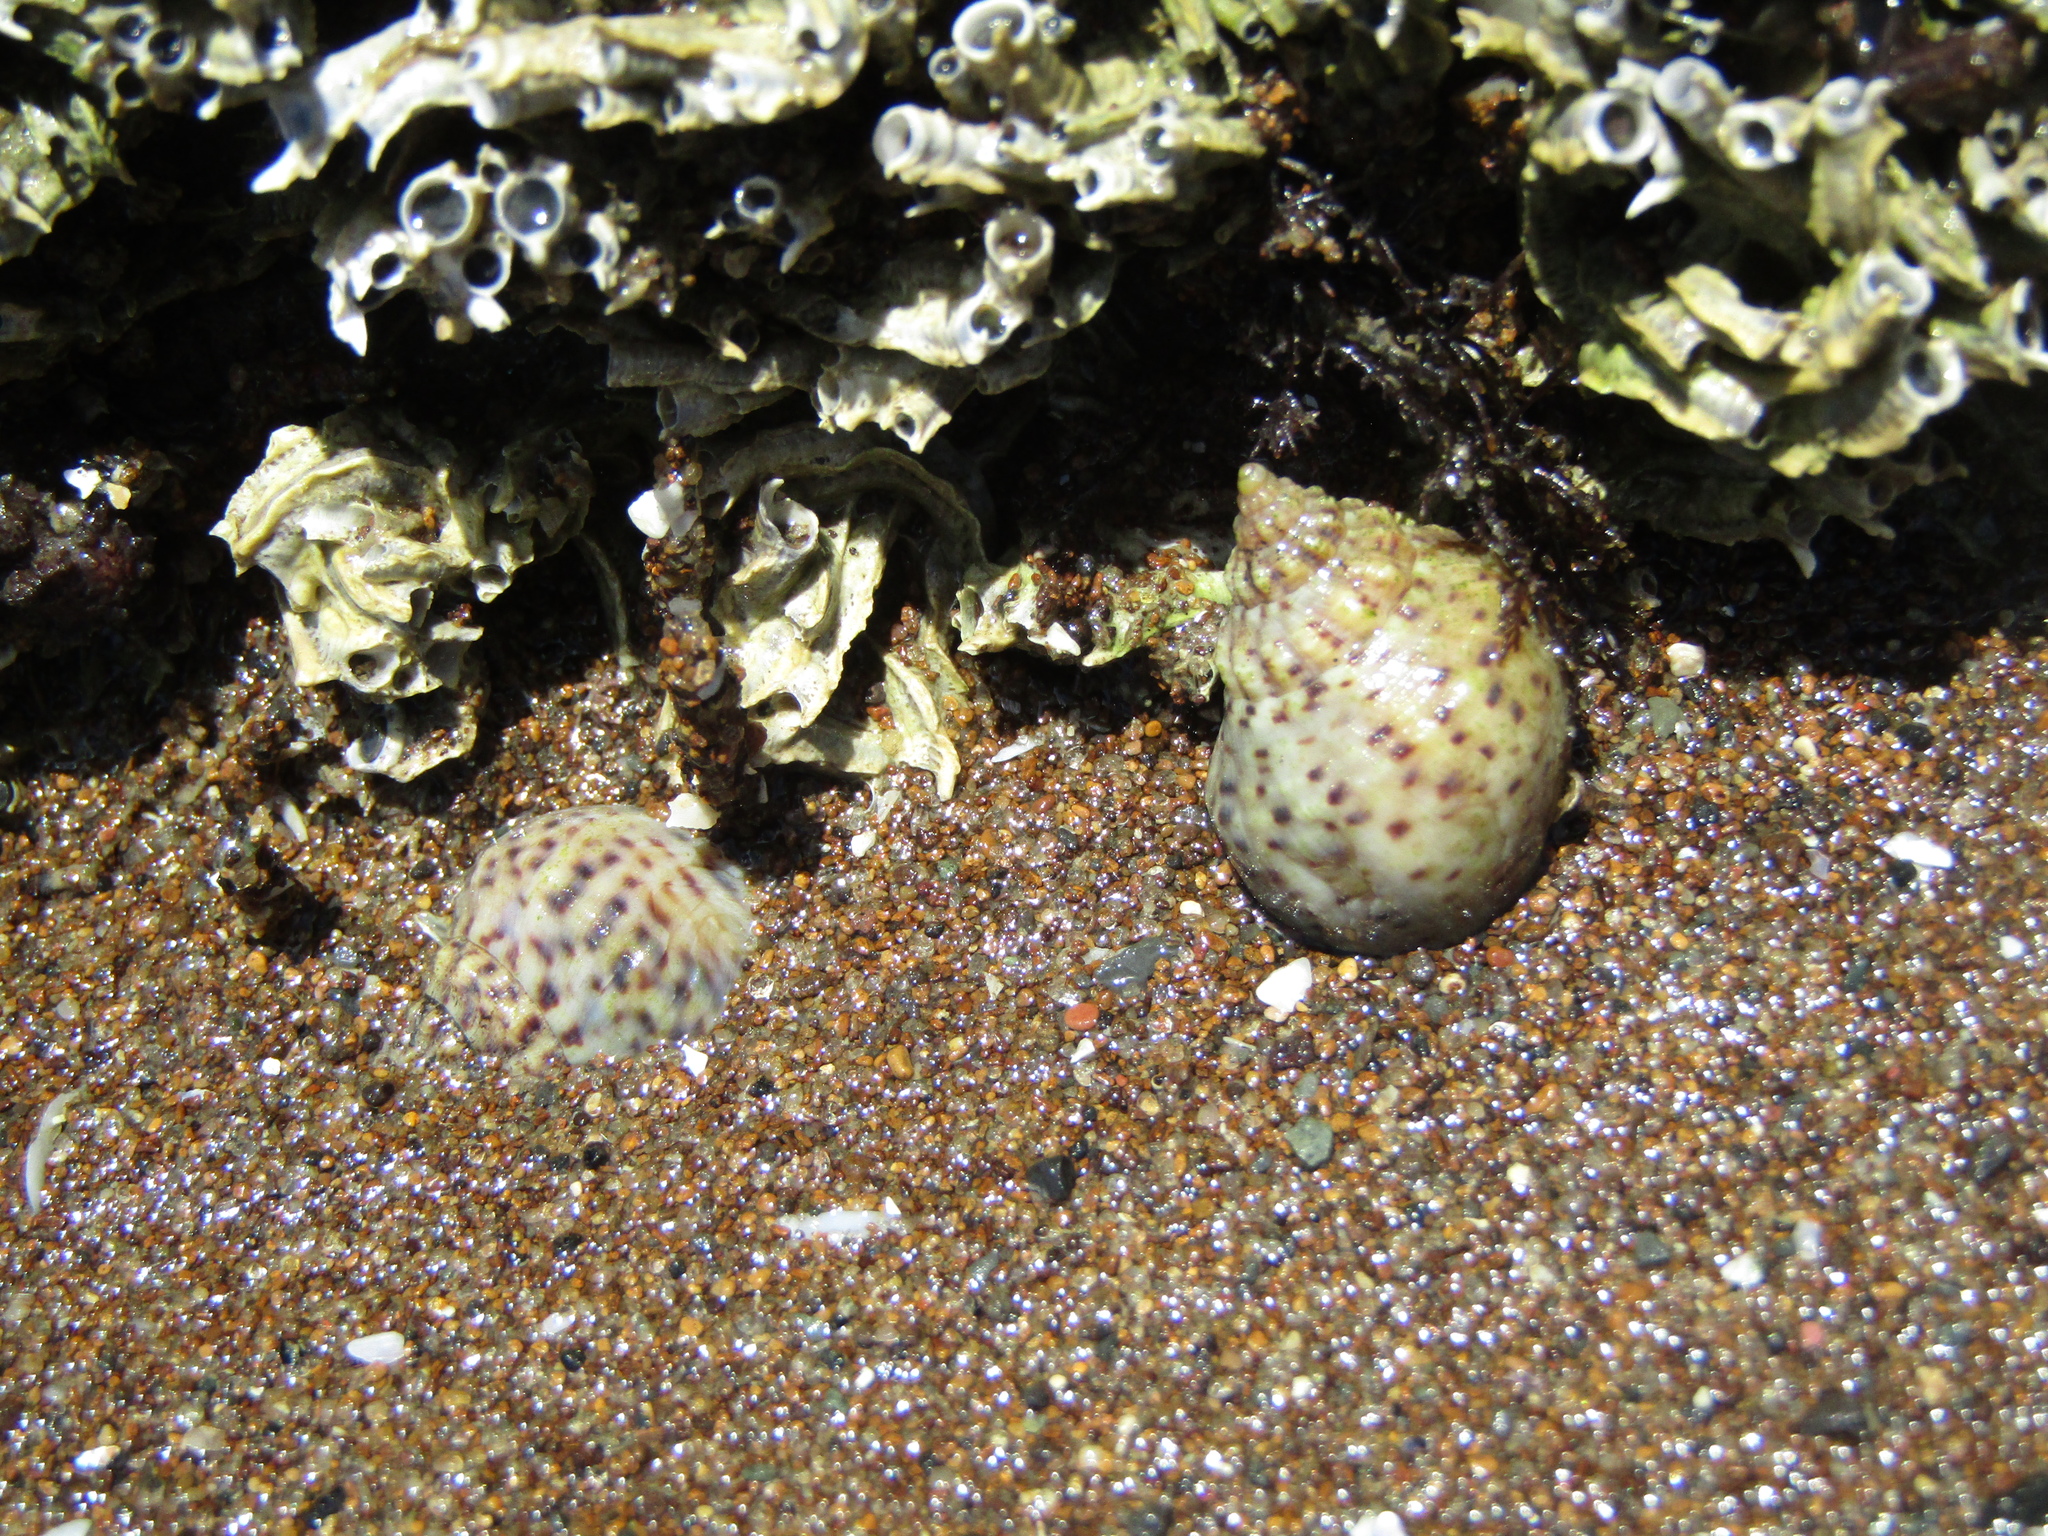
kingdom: Animalia
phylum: Mollusca
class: Gastropoda
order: Neogastropoda
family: Cominellidae
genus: Cominella
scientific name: Cominella adspersa
